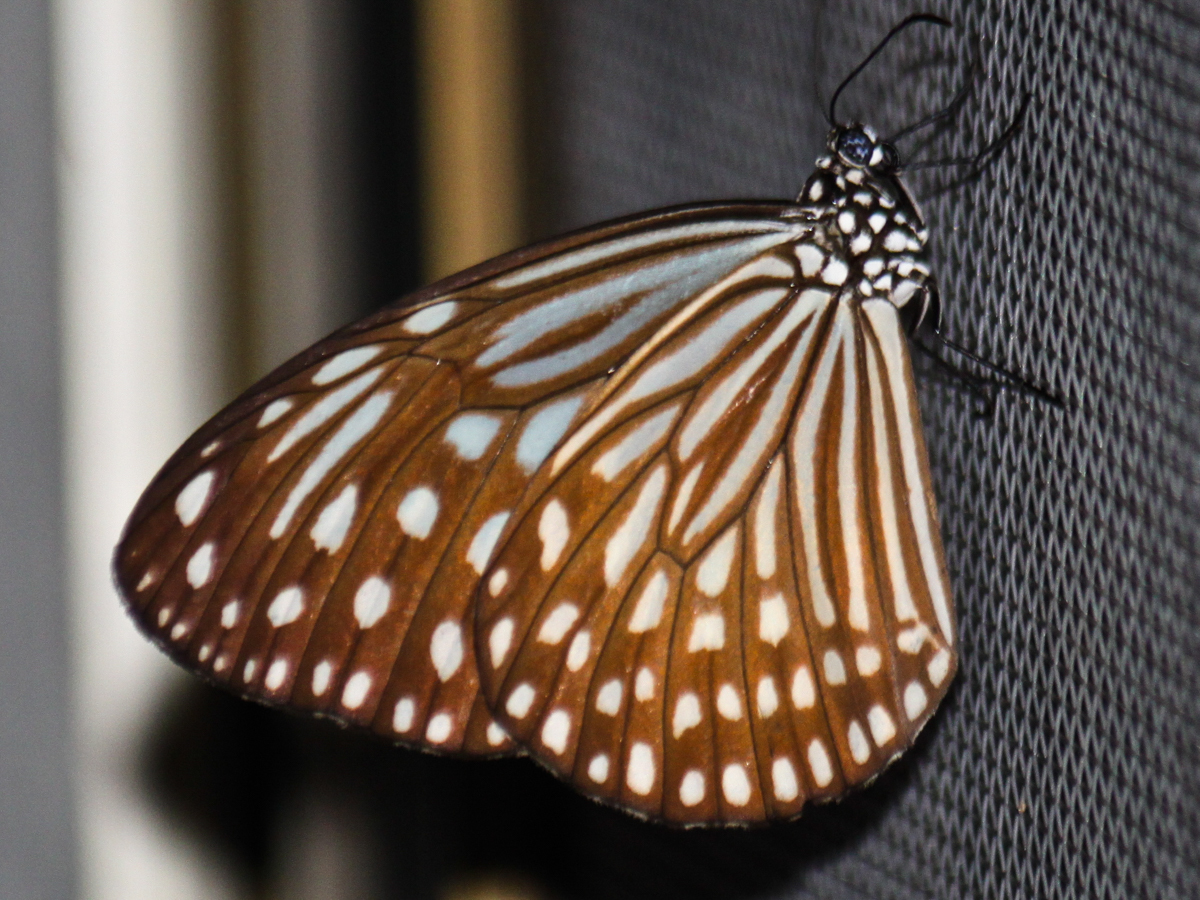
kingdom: Animalia
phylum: Arthropoda
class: Insecta
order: Lepidoptera
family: Nymphalidae
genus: Parantica
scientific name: Parantica agleoides
